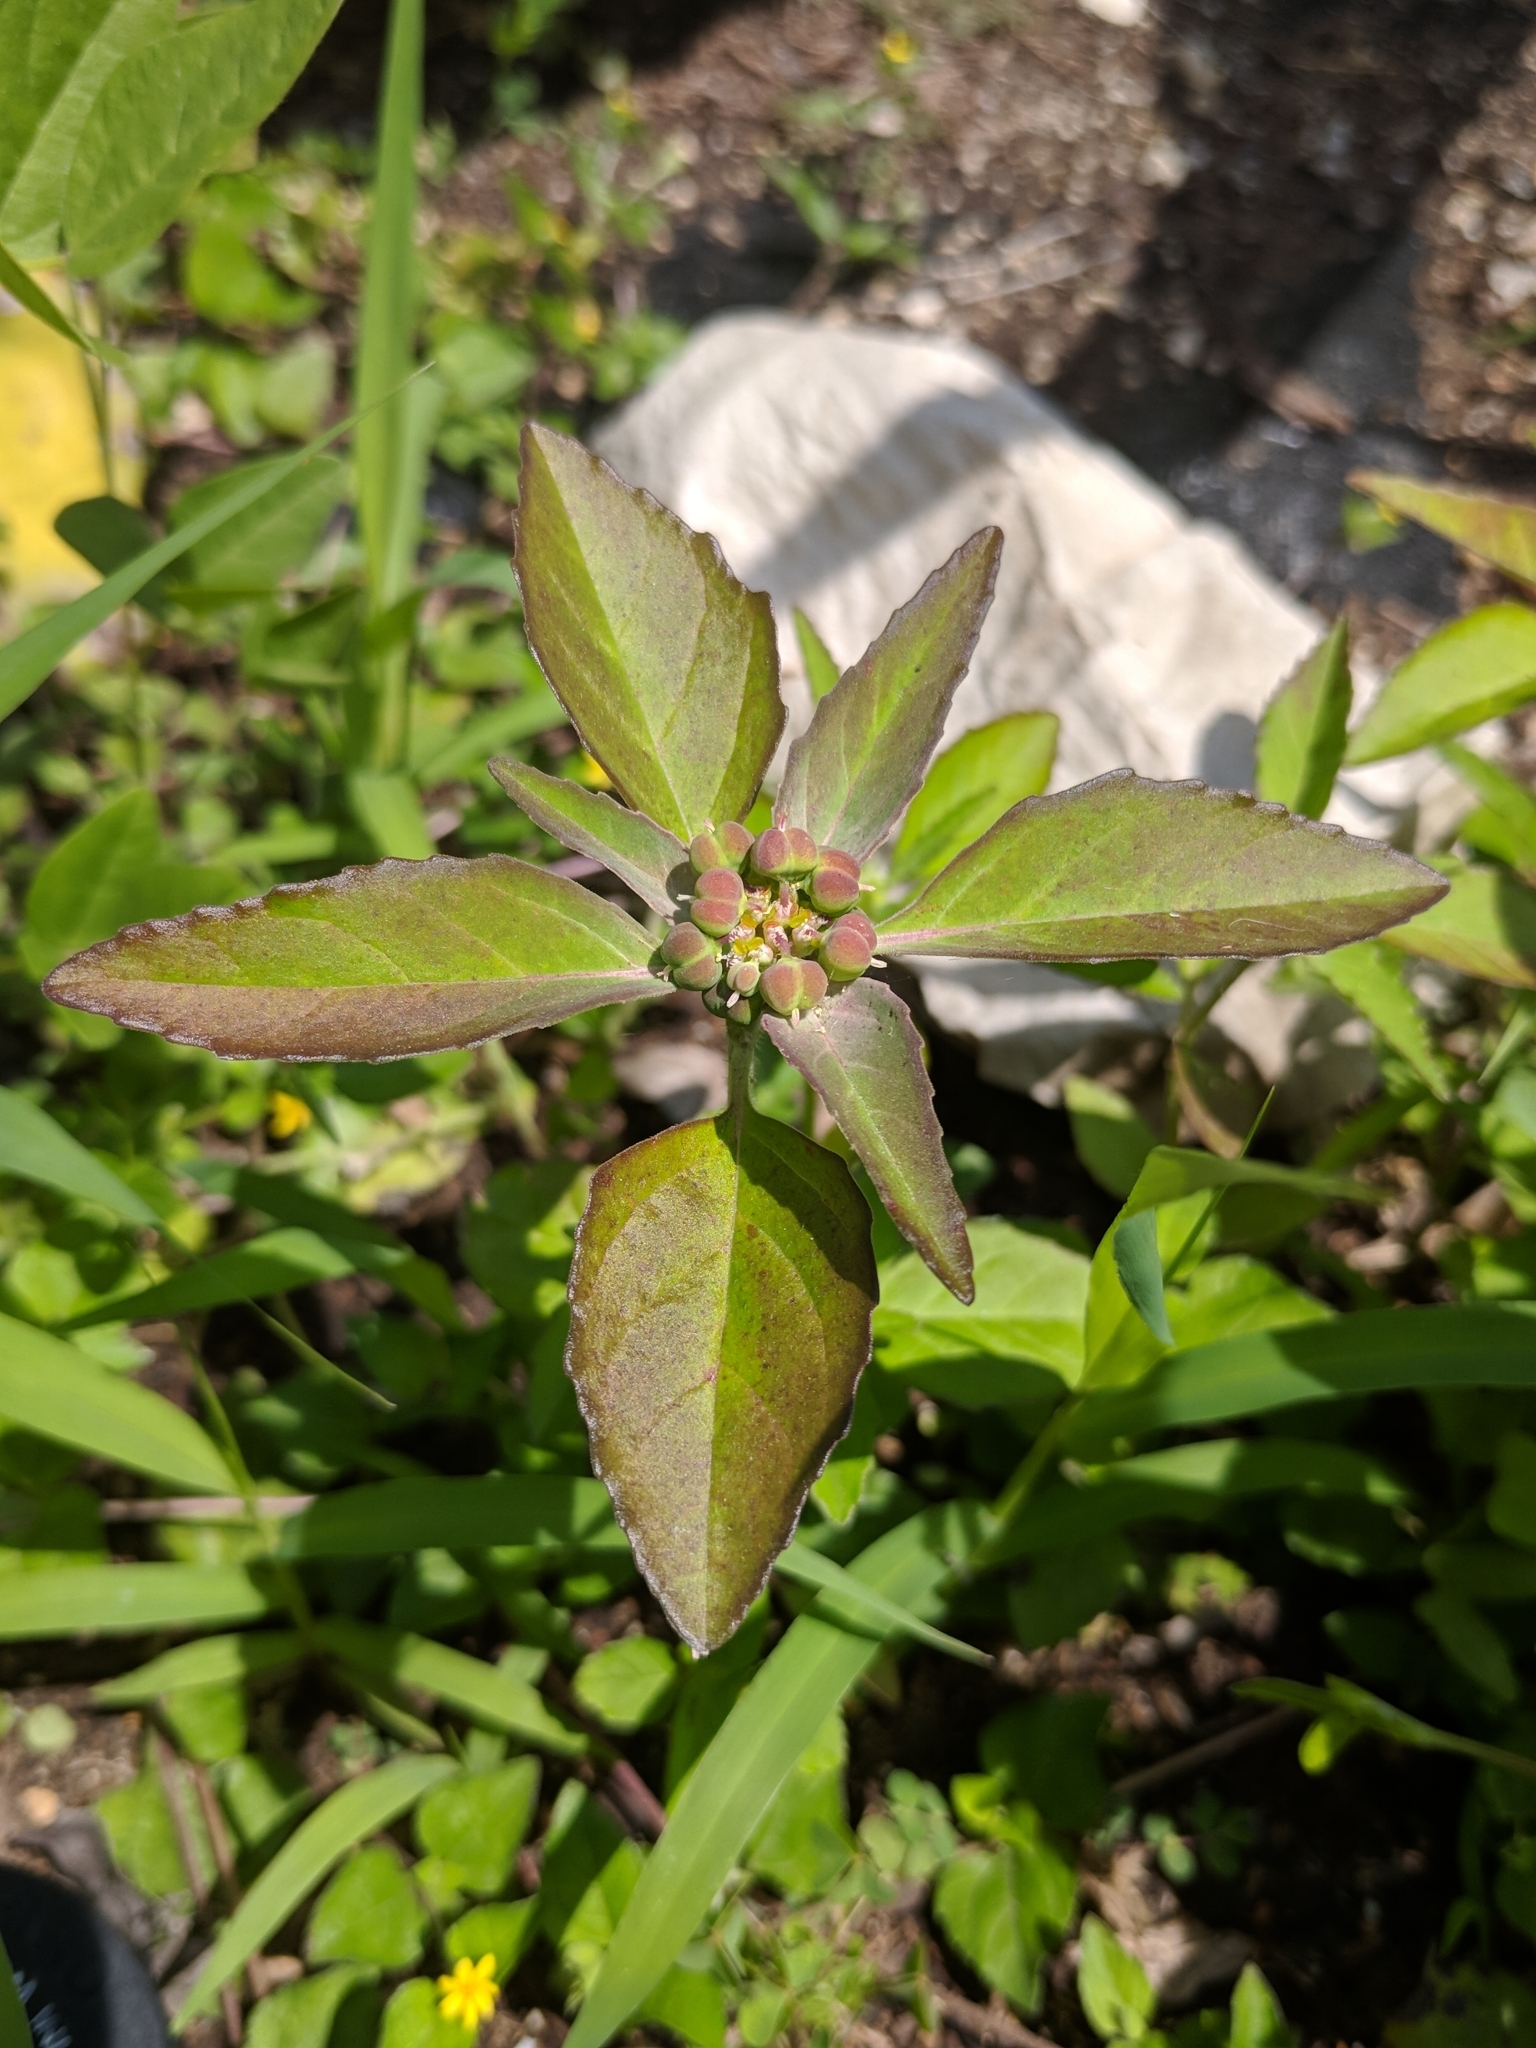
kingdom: Plantae
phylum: Tracheophyta
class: Magnoliopsida
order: Malpighiales
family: Euphorbiaceae
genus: Euphorbia
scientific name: Euphorbia dentata
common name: Dentate spurge
